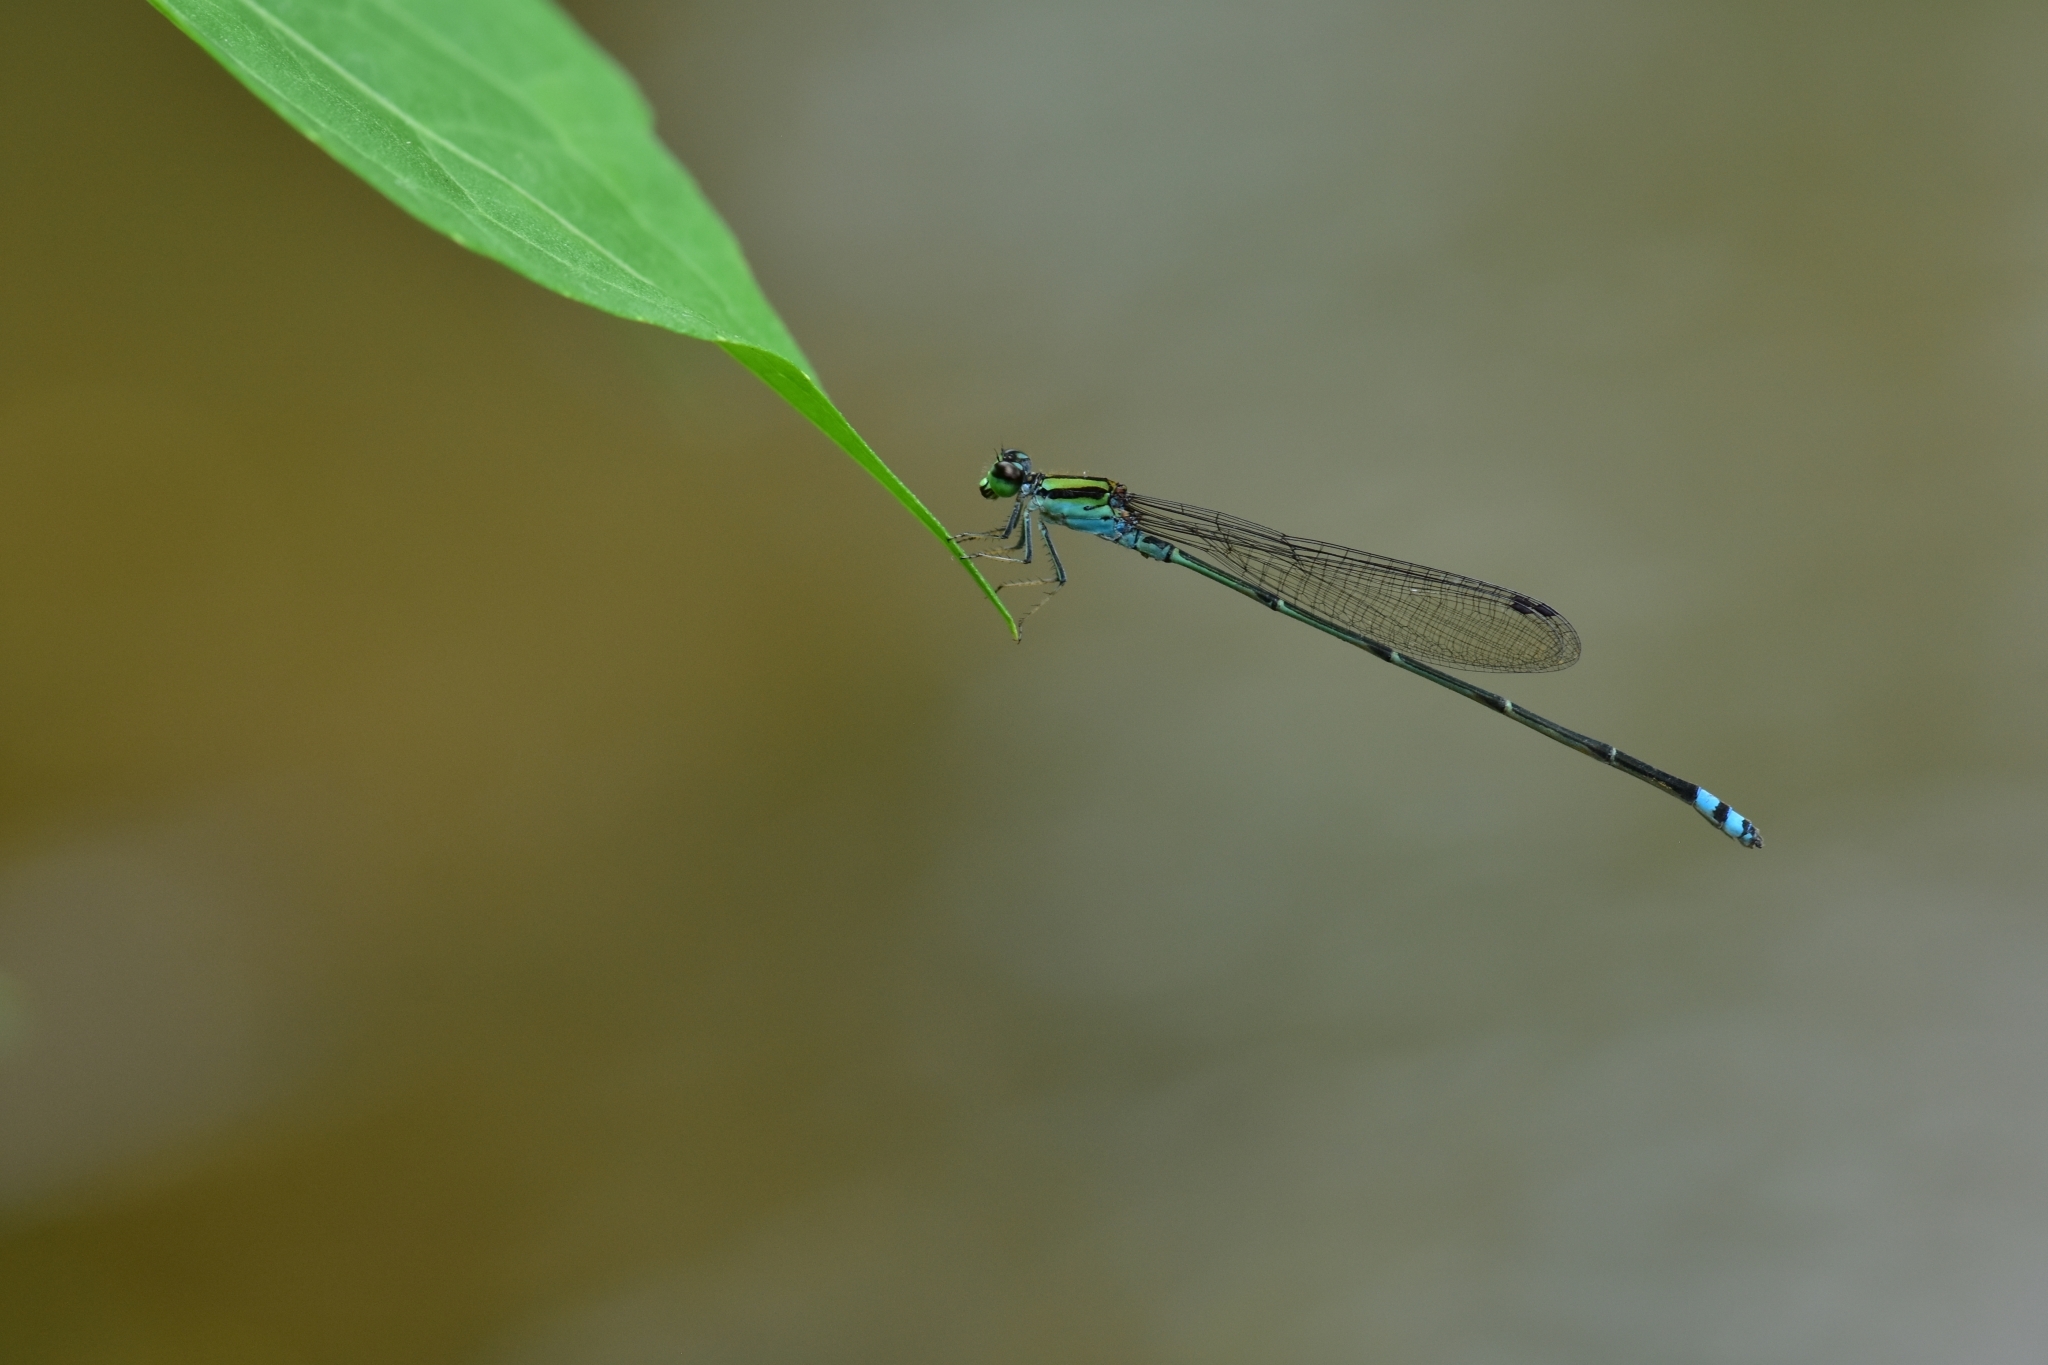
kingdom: Animalia
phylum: Arthropoda
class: Insecta
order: Odonata
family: Coenagrionidae
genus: Pseudagrion
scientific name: Pseudagrion indicum
